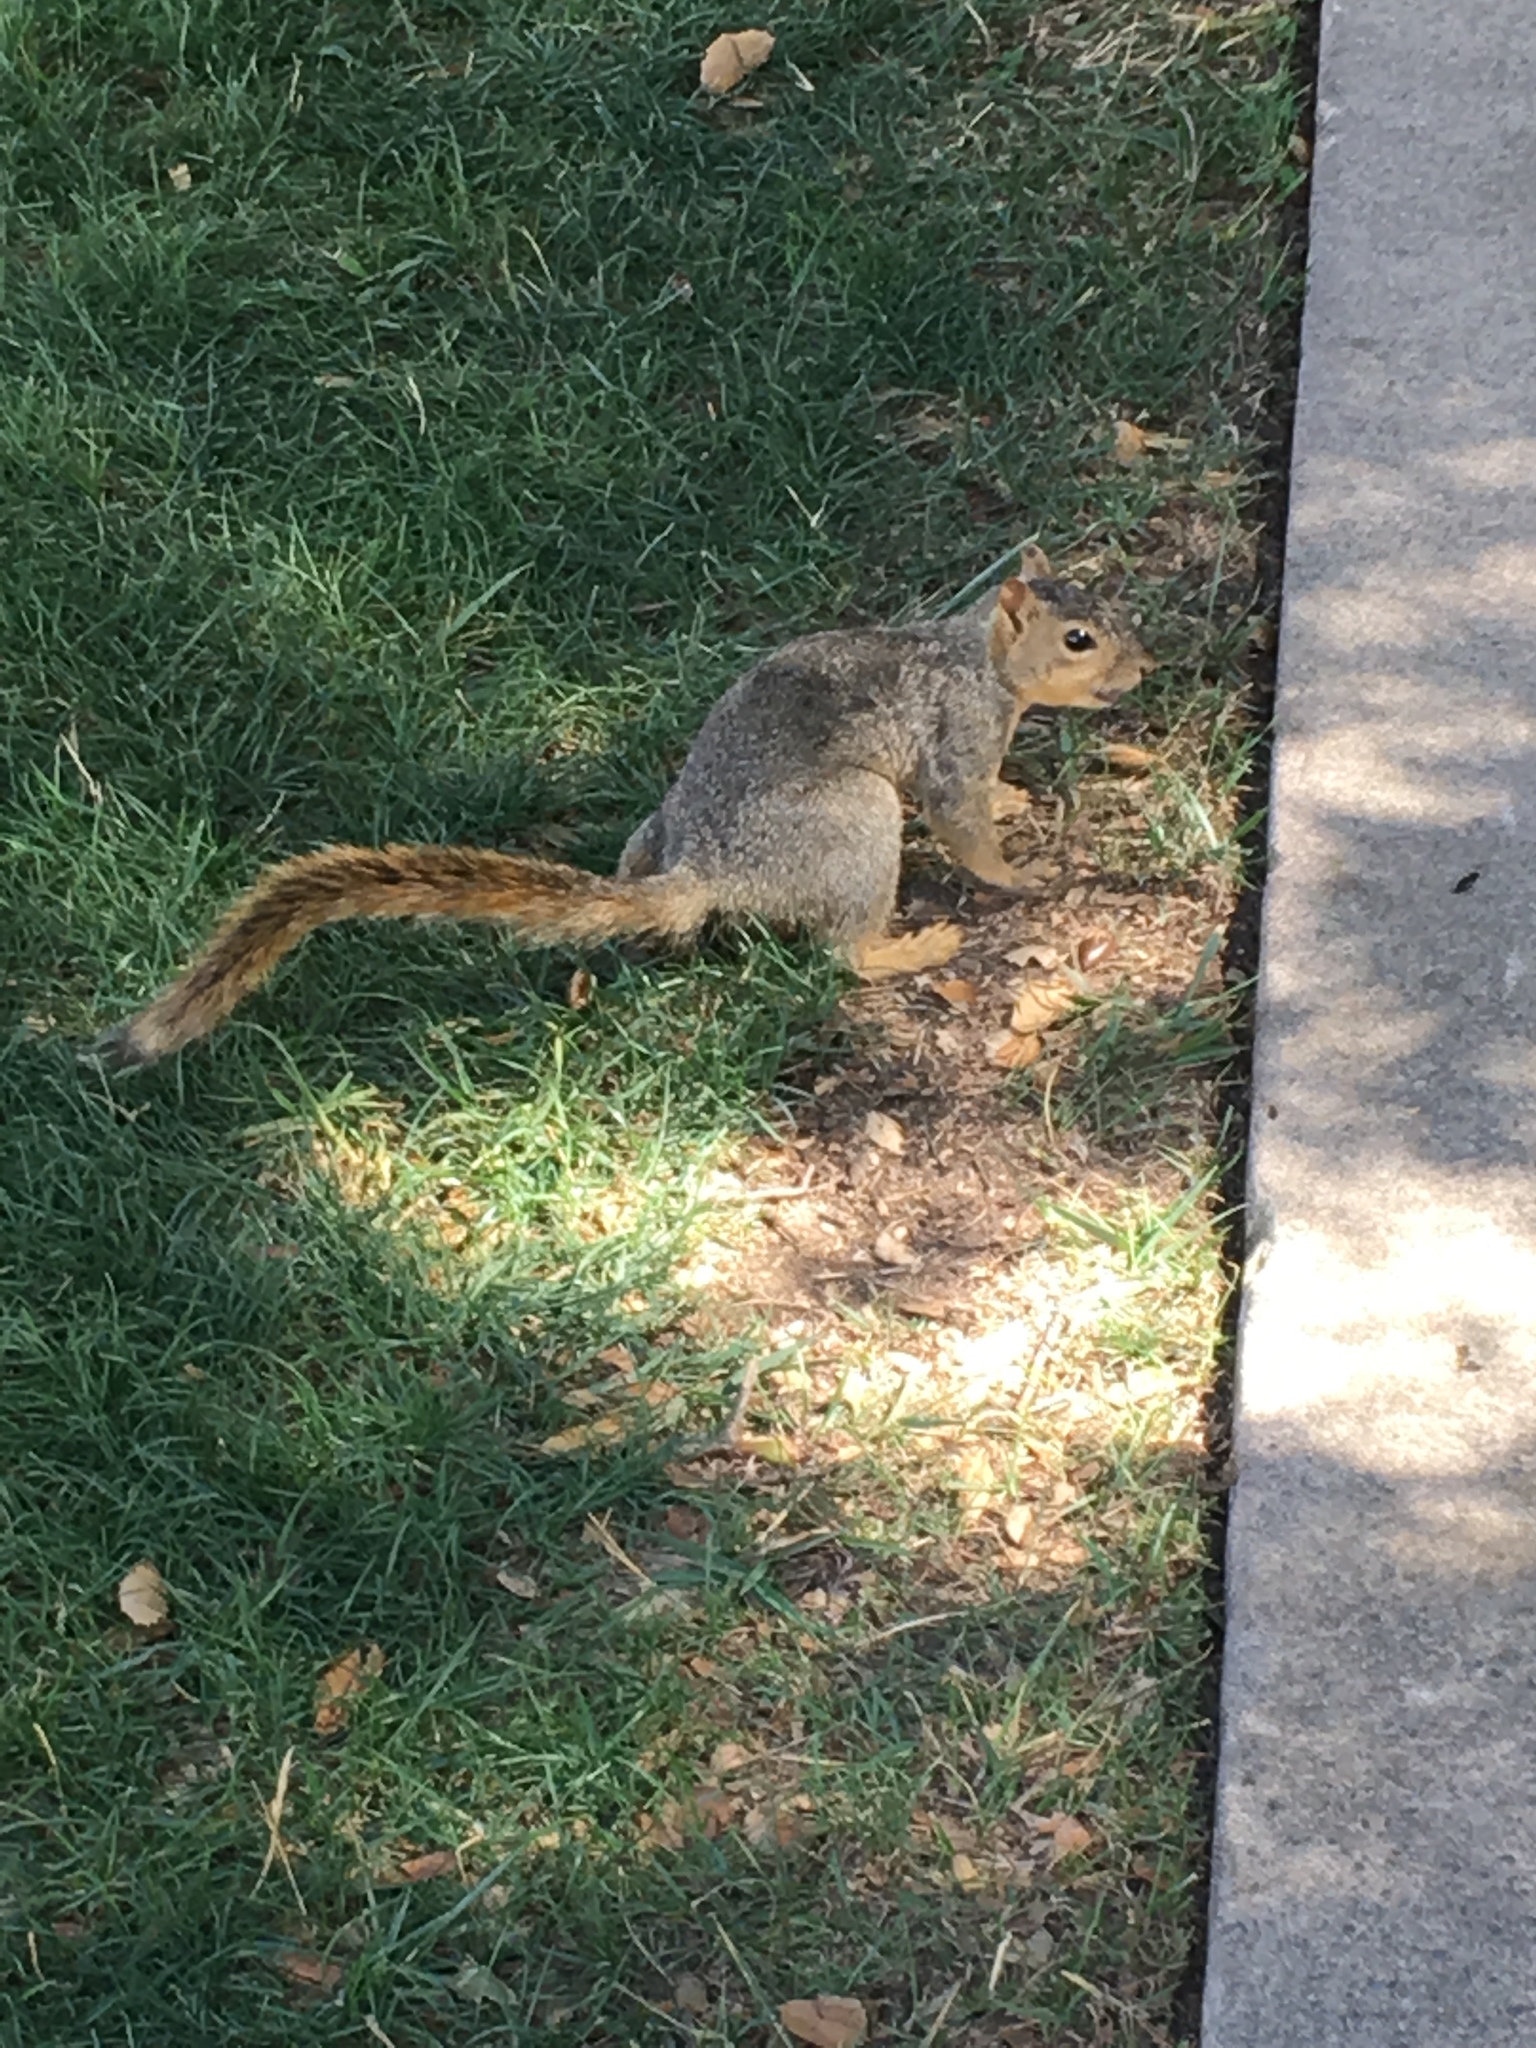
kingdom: Animalia
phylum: Chordata
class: Mammalia
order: Rodentia
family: Sciuridae
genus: Sciurus
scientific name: Sciurus niger
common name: Fox squirrel
